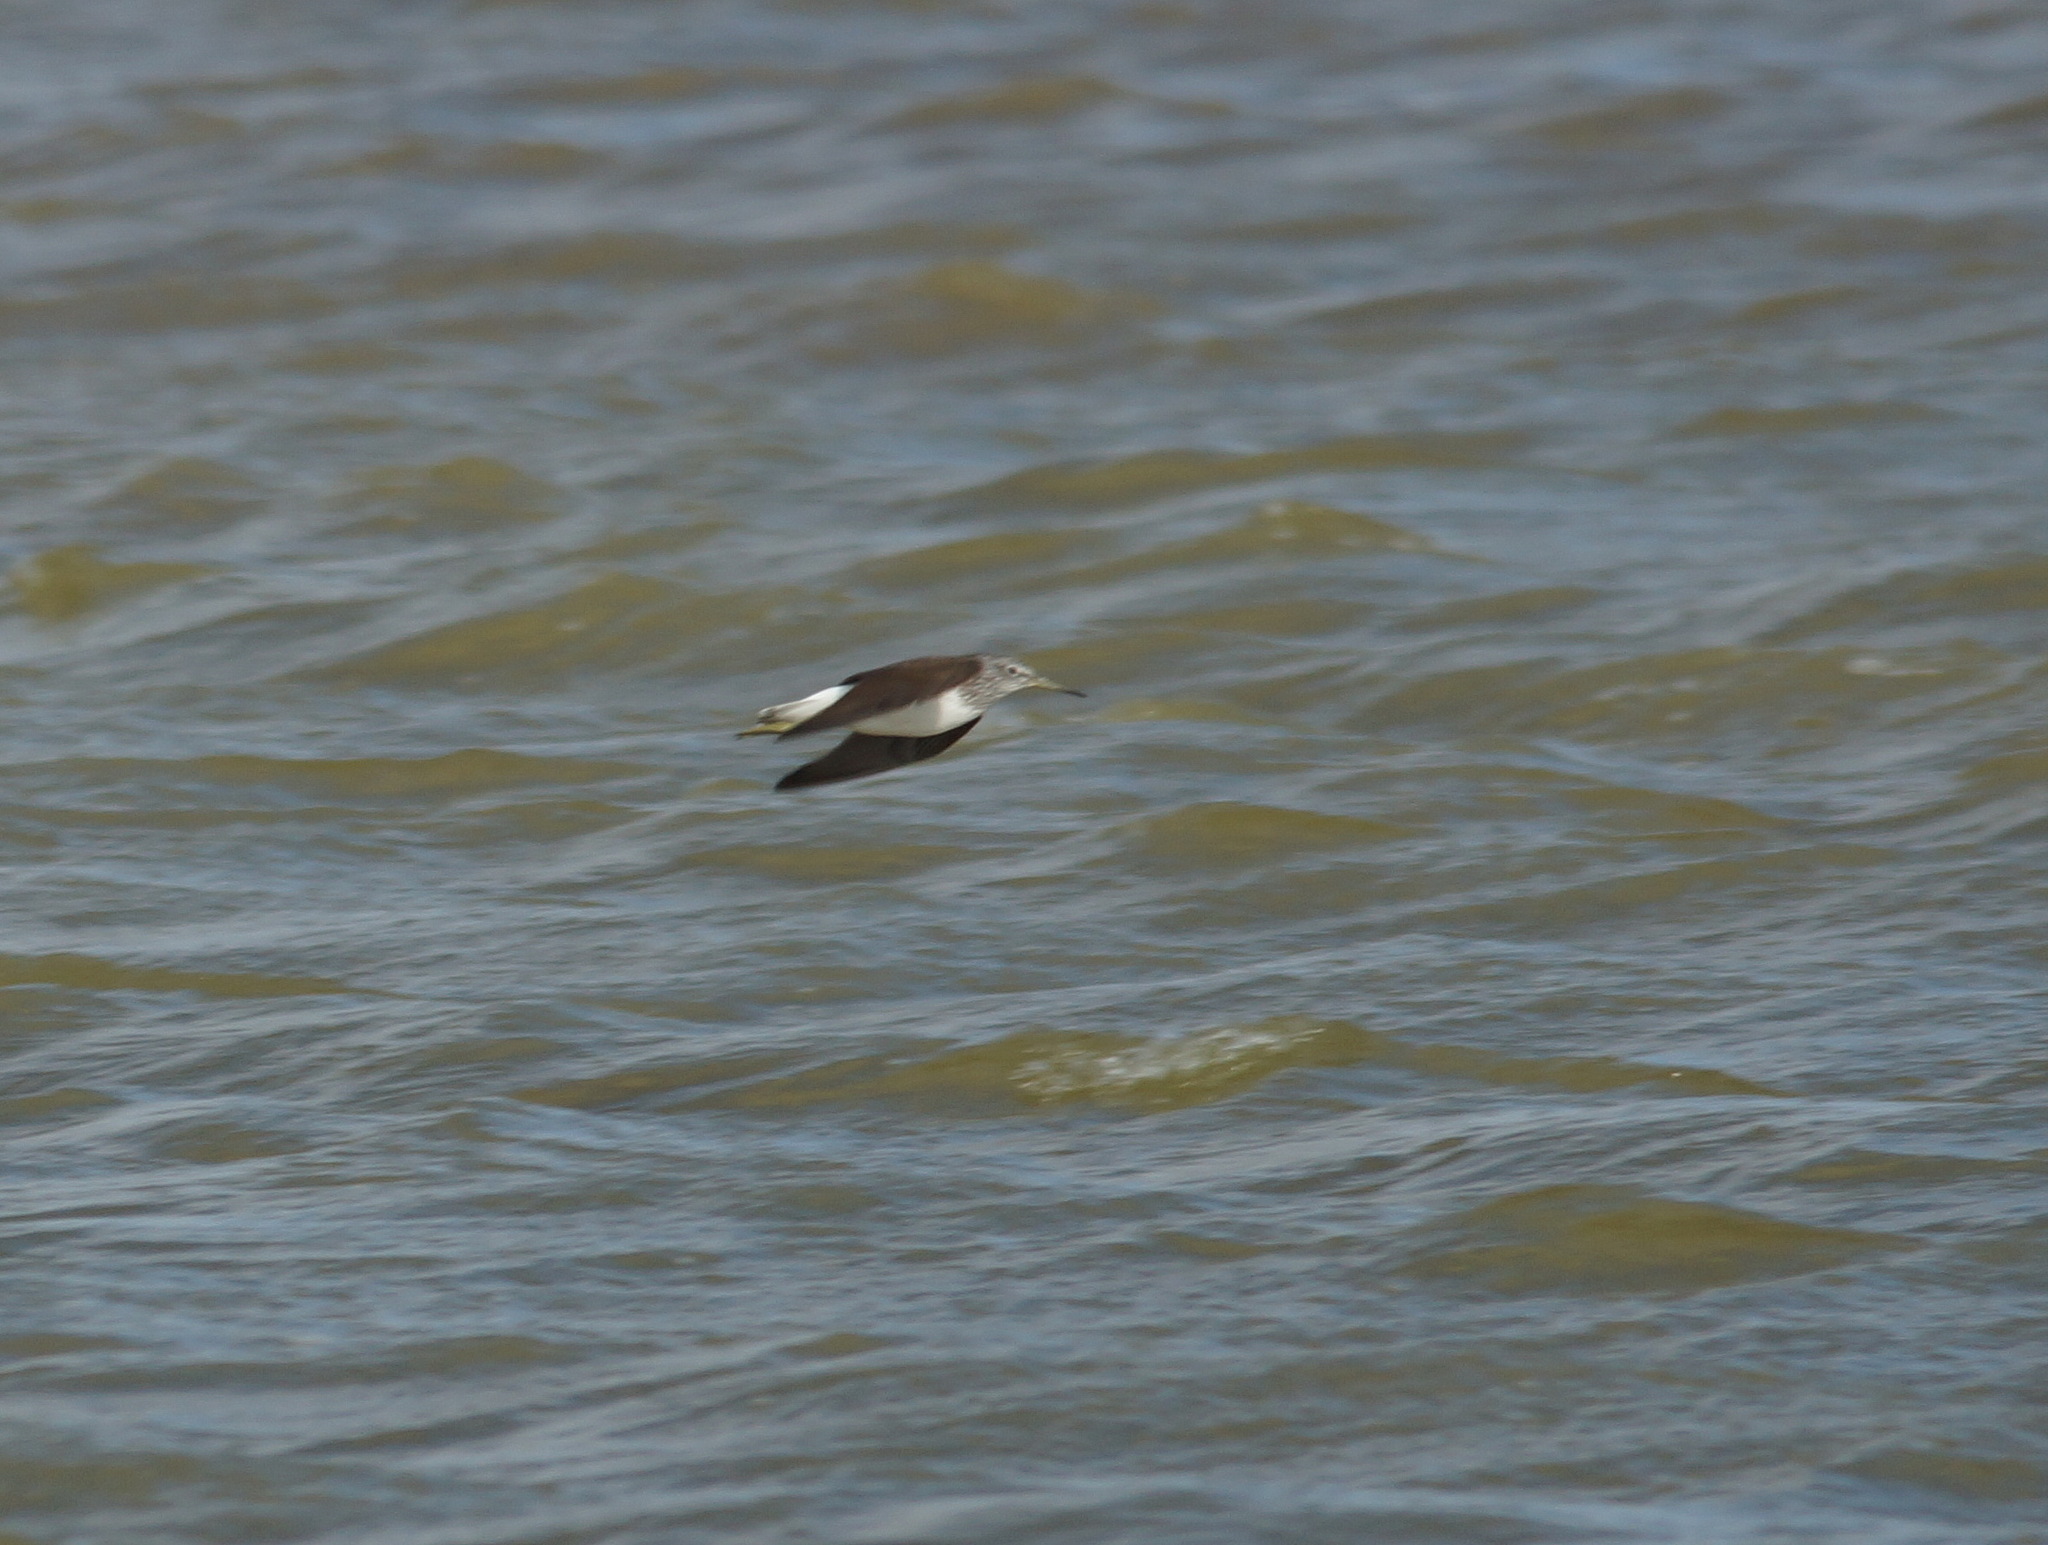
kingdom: Animalia
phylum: Chordata
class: Aves
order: Charadriiformes
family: Scolopacidae
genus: Tringa
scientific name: Tringa ochropus
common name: Green sandpiper
